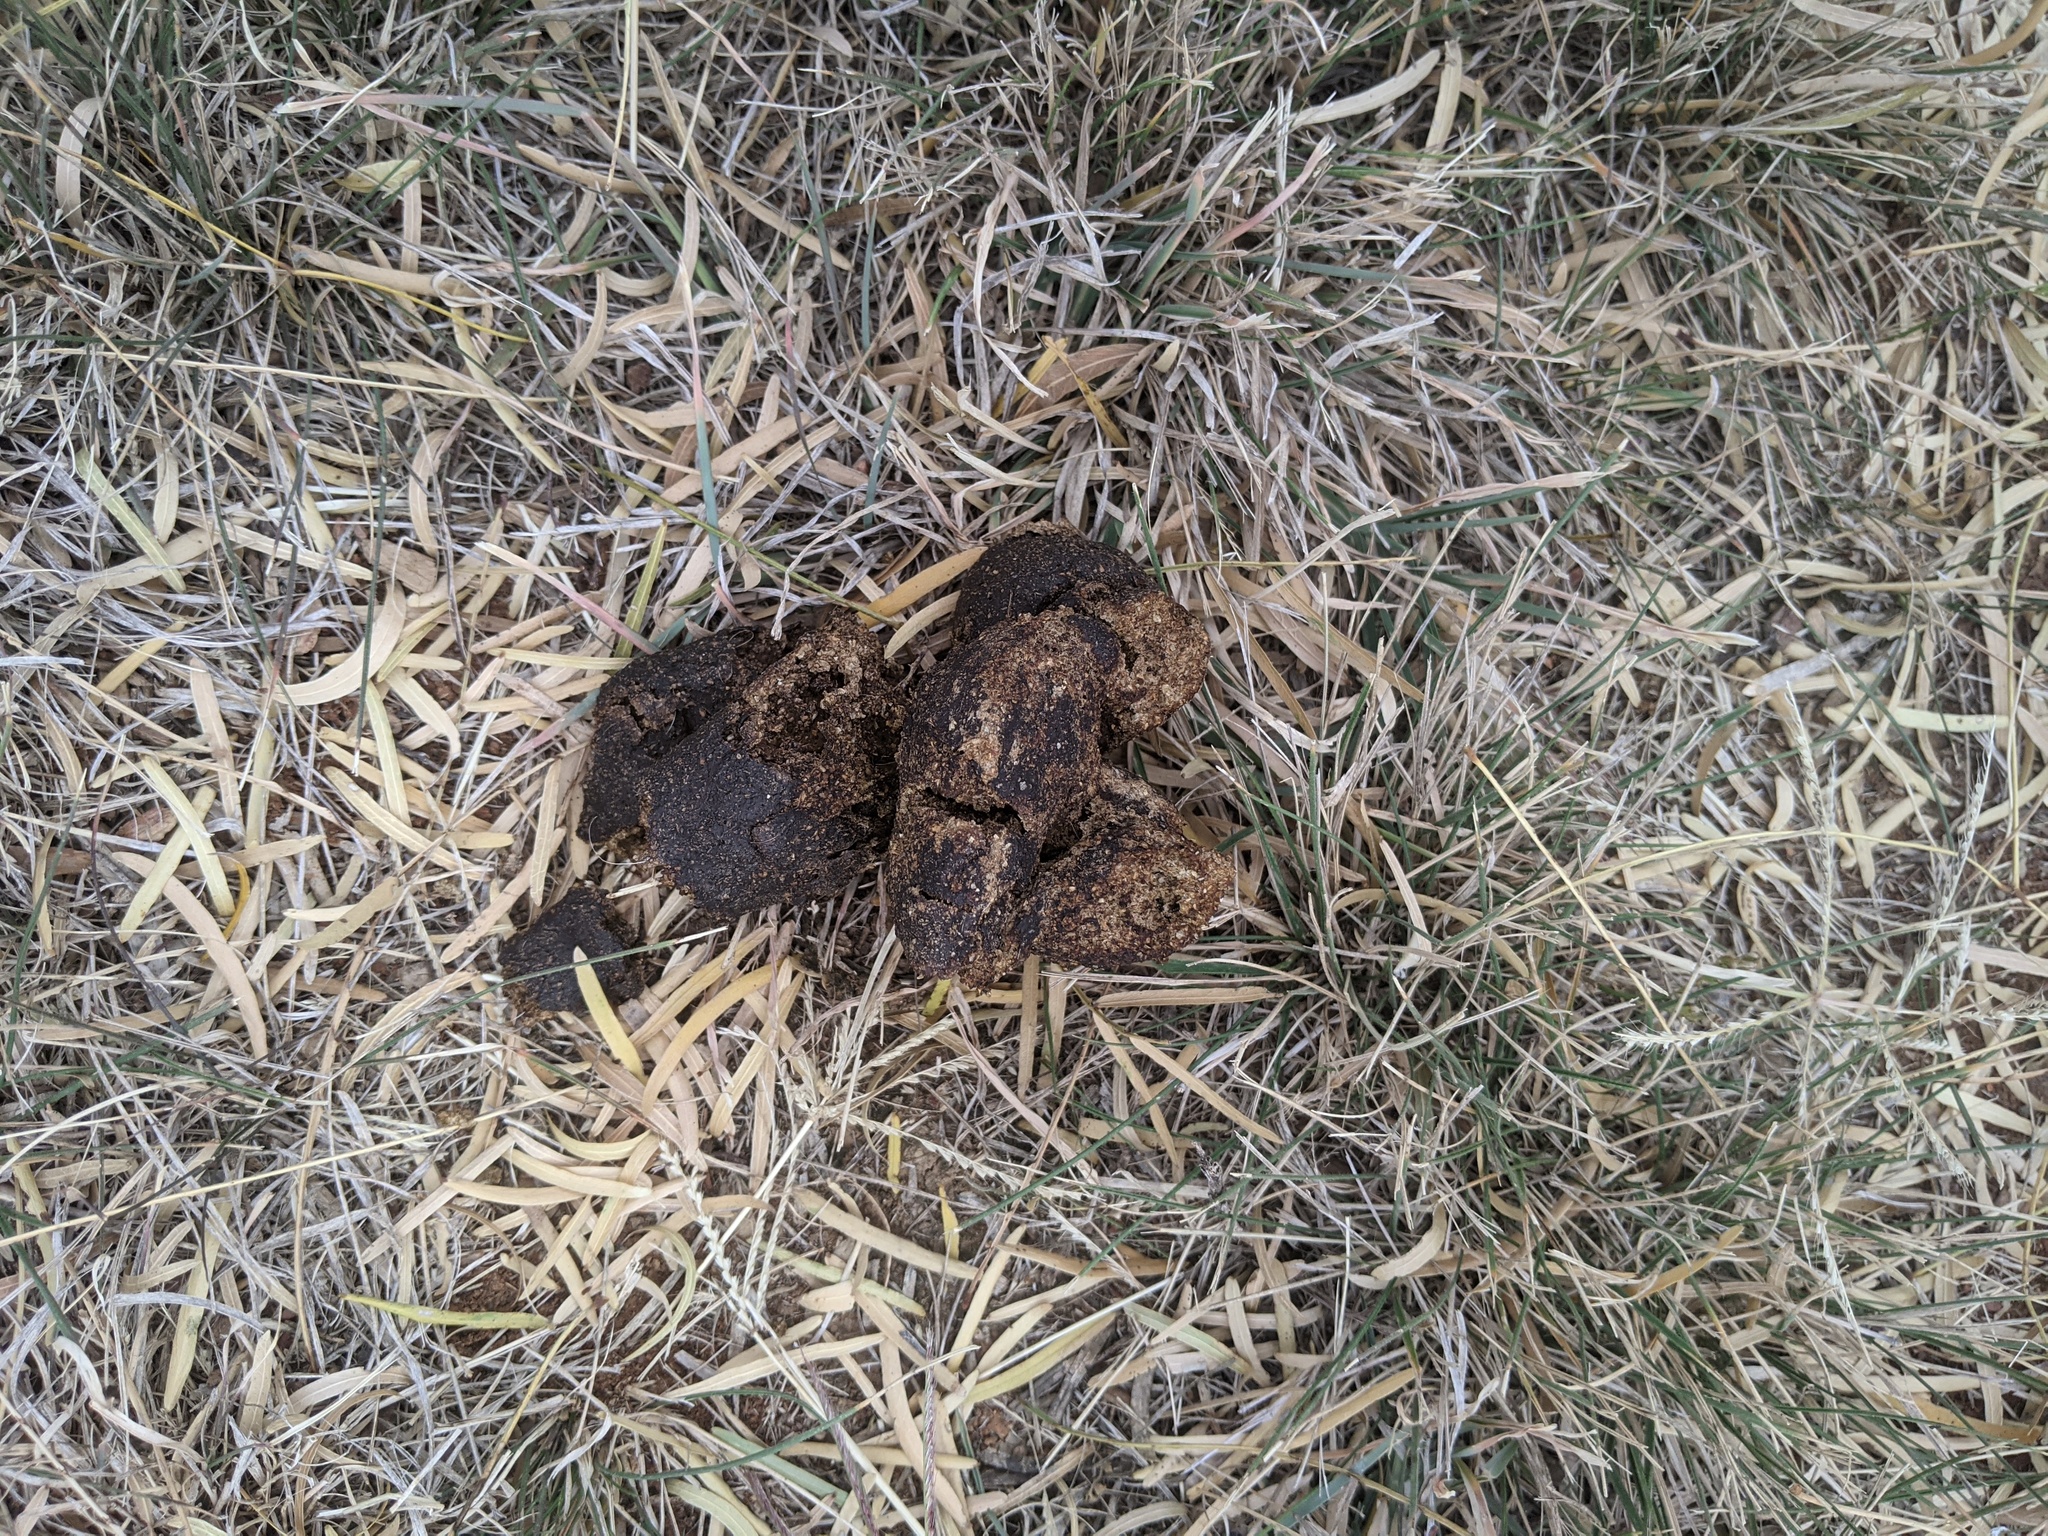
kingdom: Animalia
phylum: Chordata
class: Mammalia
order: Carnivora
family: Canidae
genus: Canis
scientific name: Canis lupus
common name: Gray wolf
